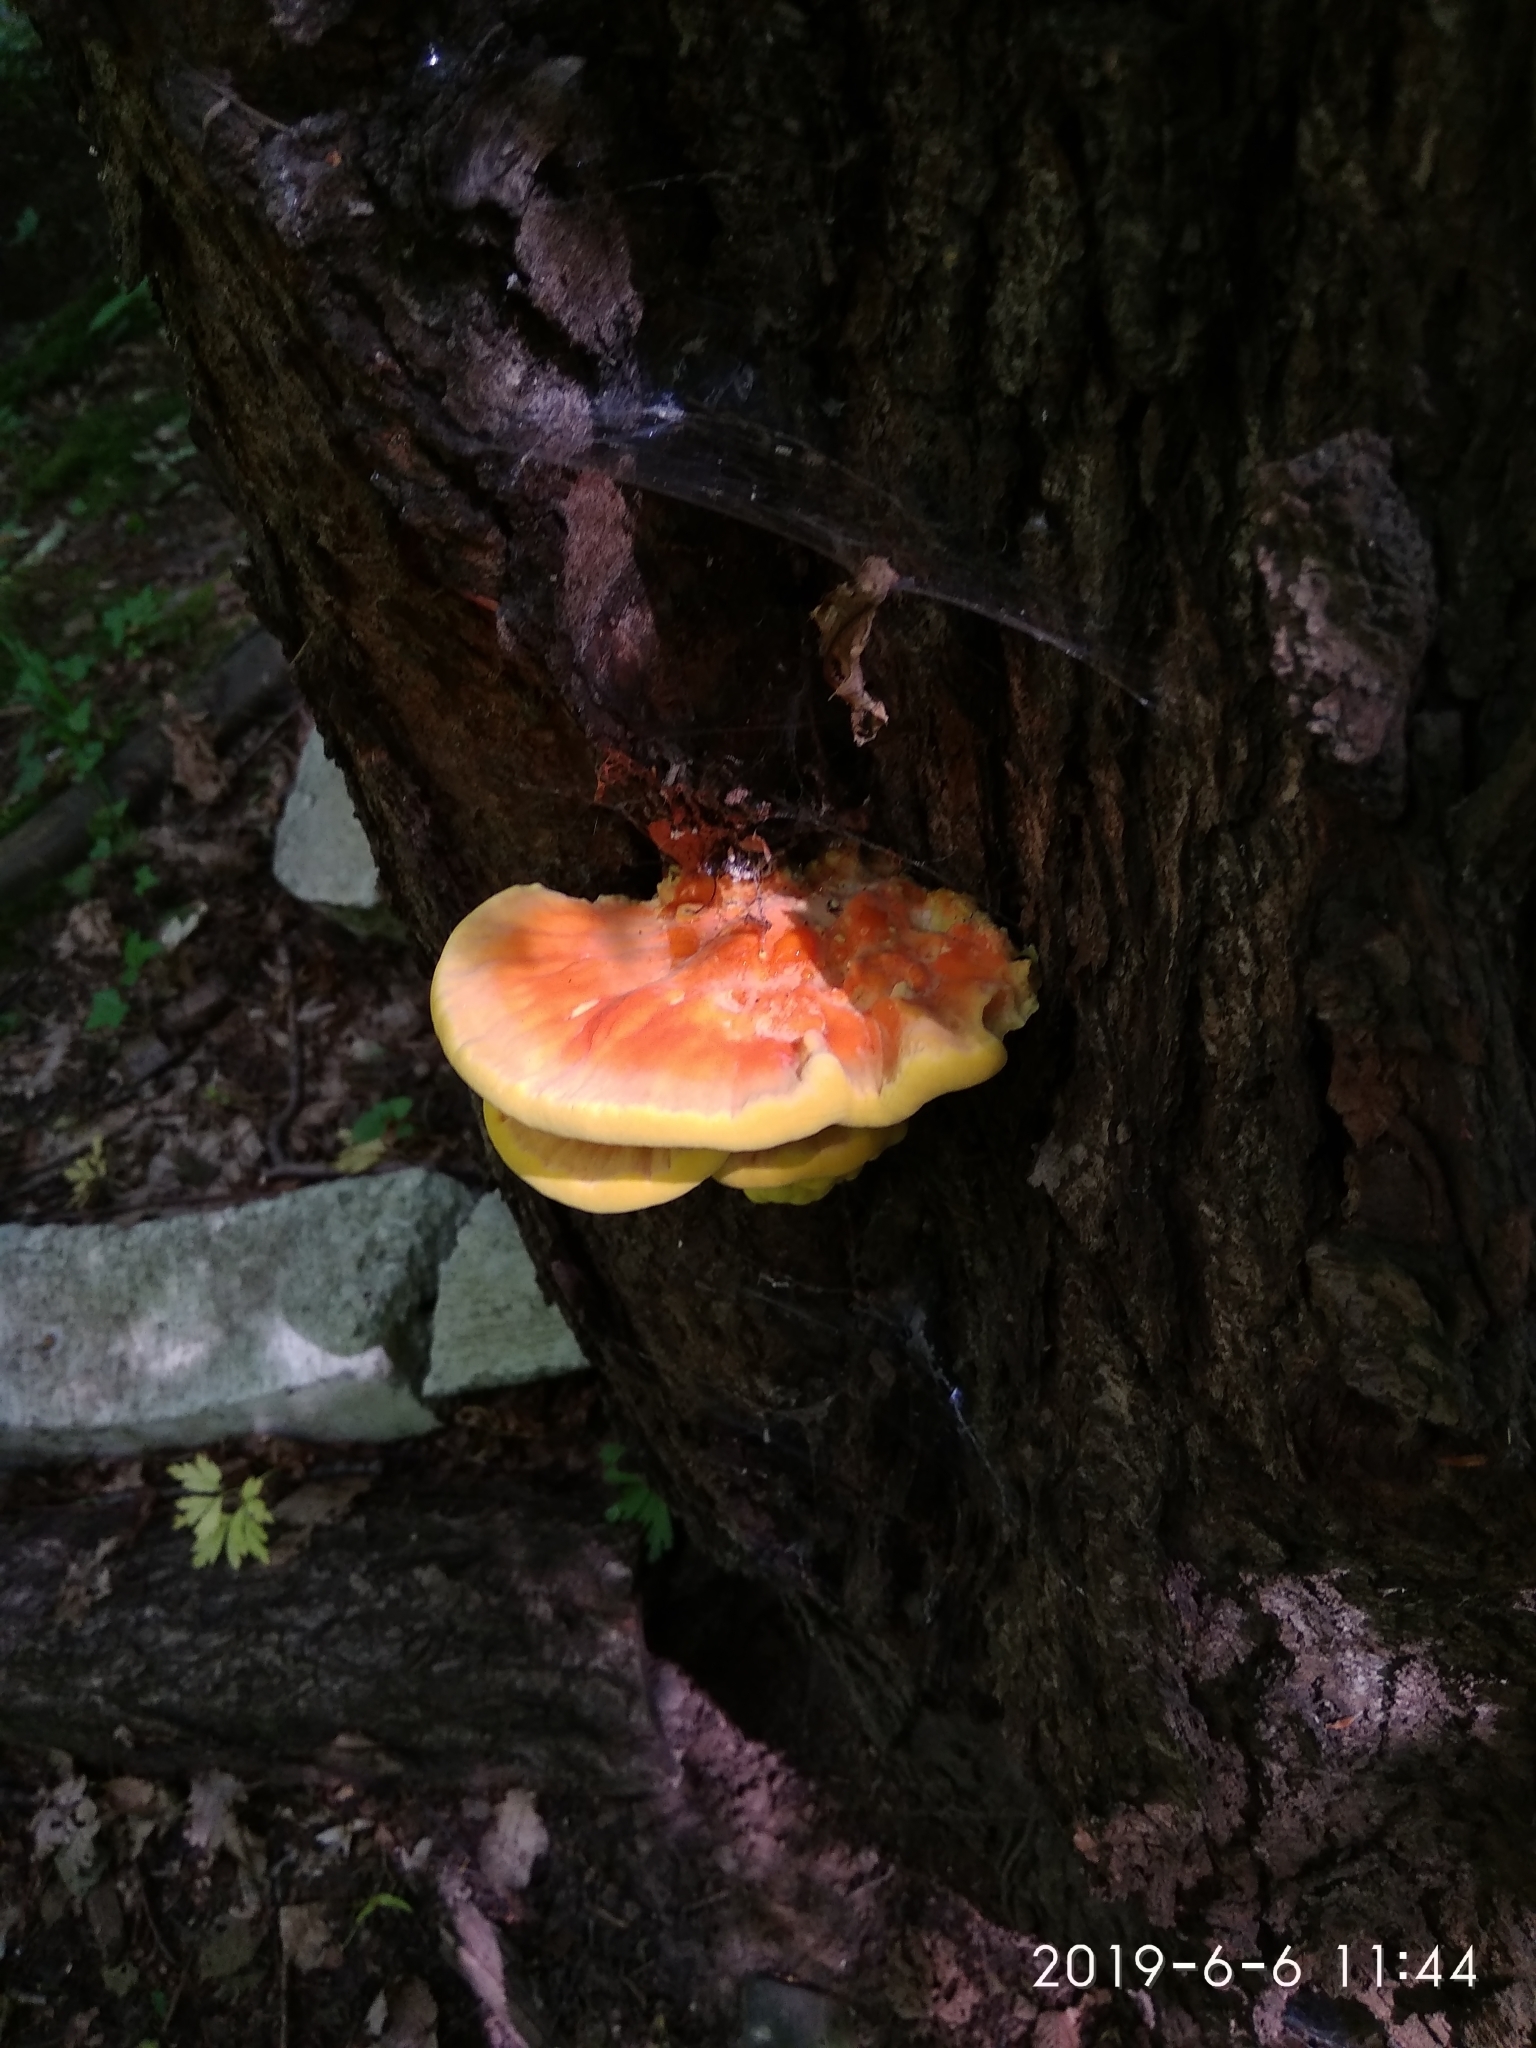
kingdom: Fungi
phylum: Basidiomycota
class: Agaricomycetes
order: Polyporales
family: Laetiporaceae
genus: Laetiporus
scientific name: Laetiporus sulphureus
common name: Chicken of the woods
